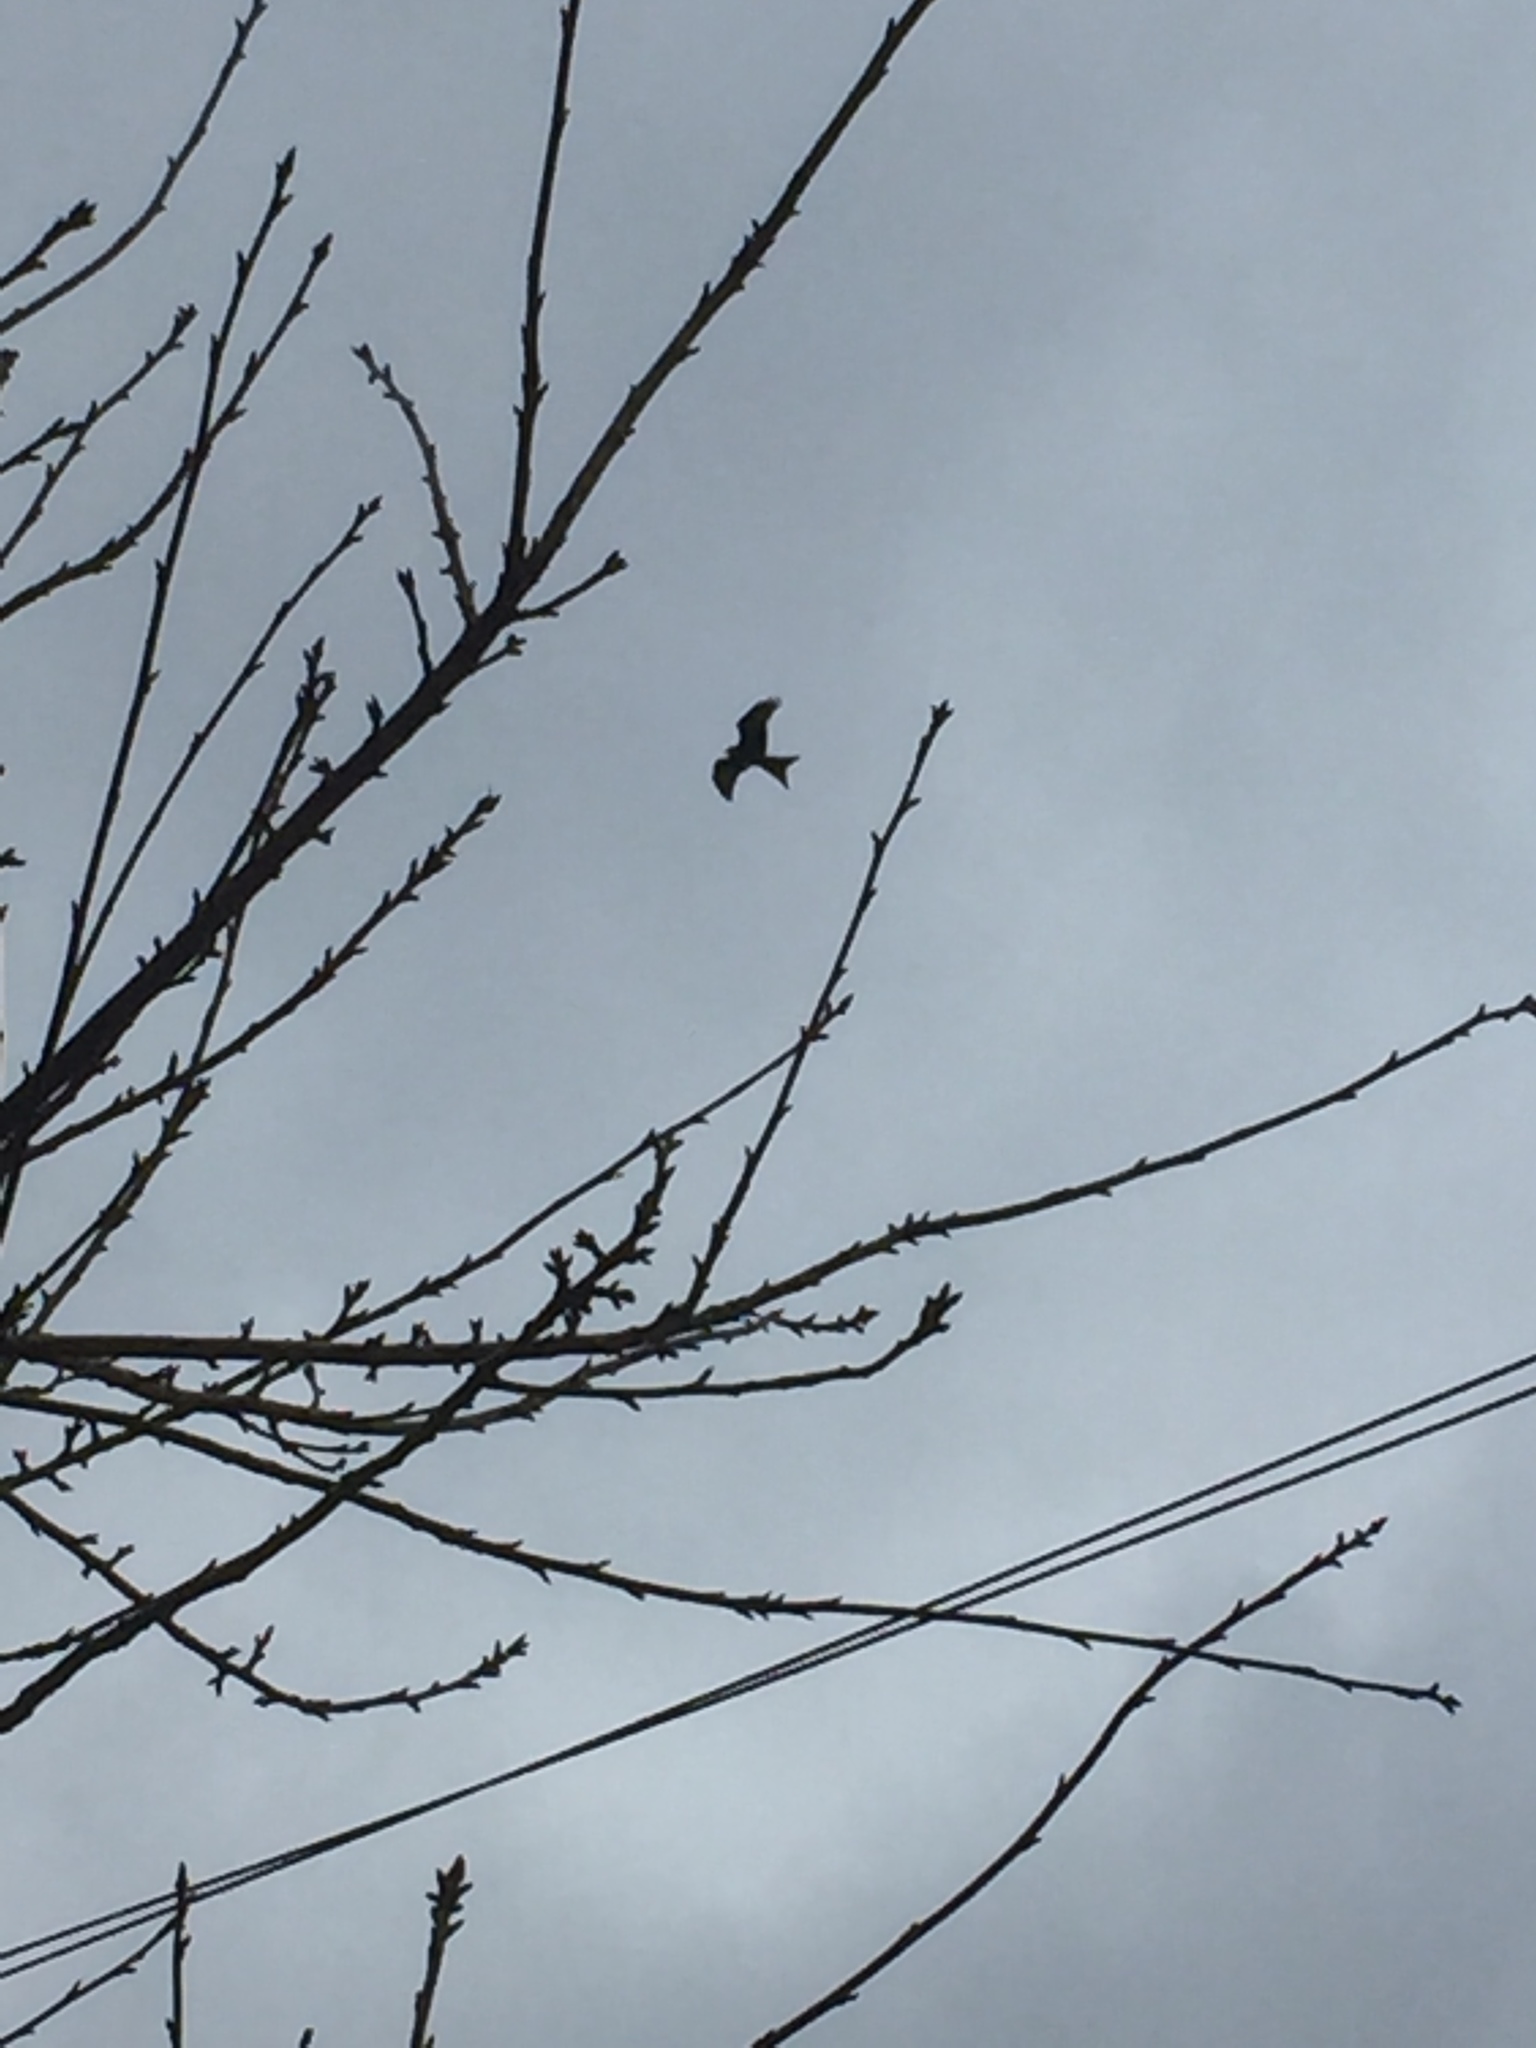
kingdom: Animalia
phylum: Chordata
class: Aves
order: Accipitriformes
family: Accipitridae
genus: Milvus
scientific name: Milvus milvus
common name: Red kite
